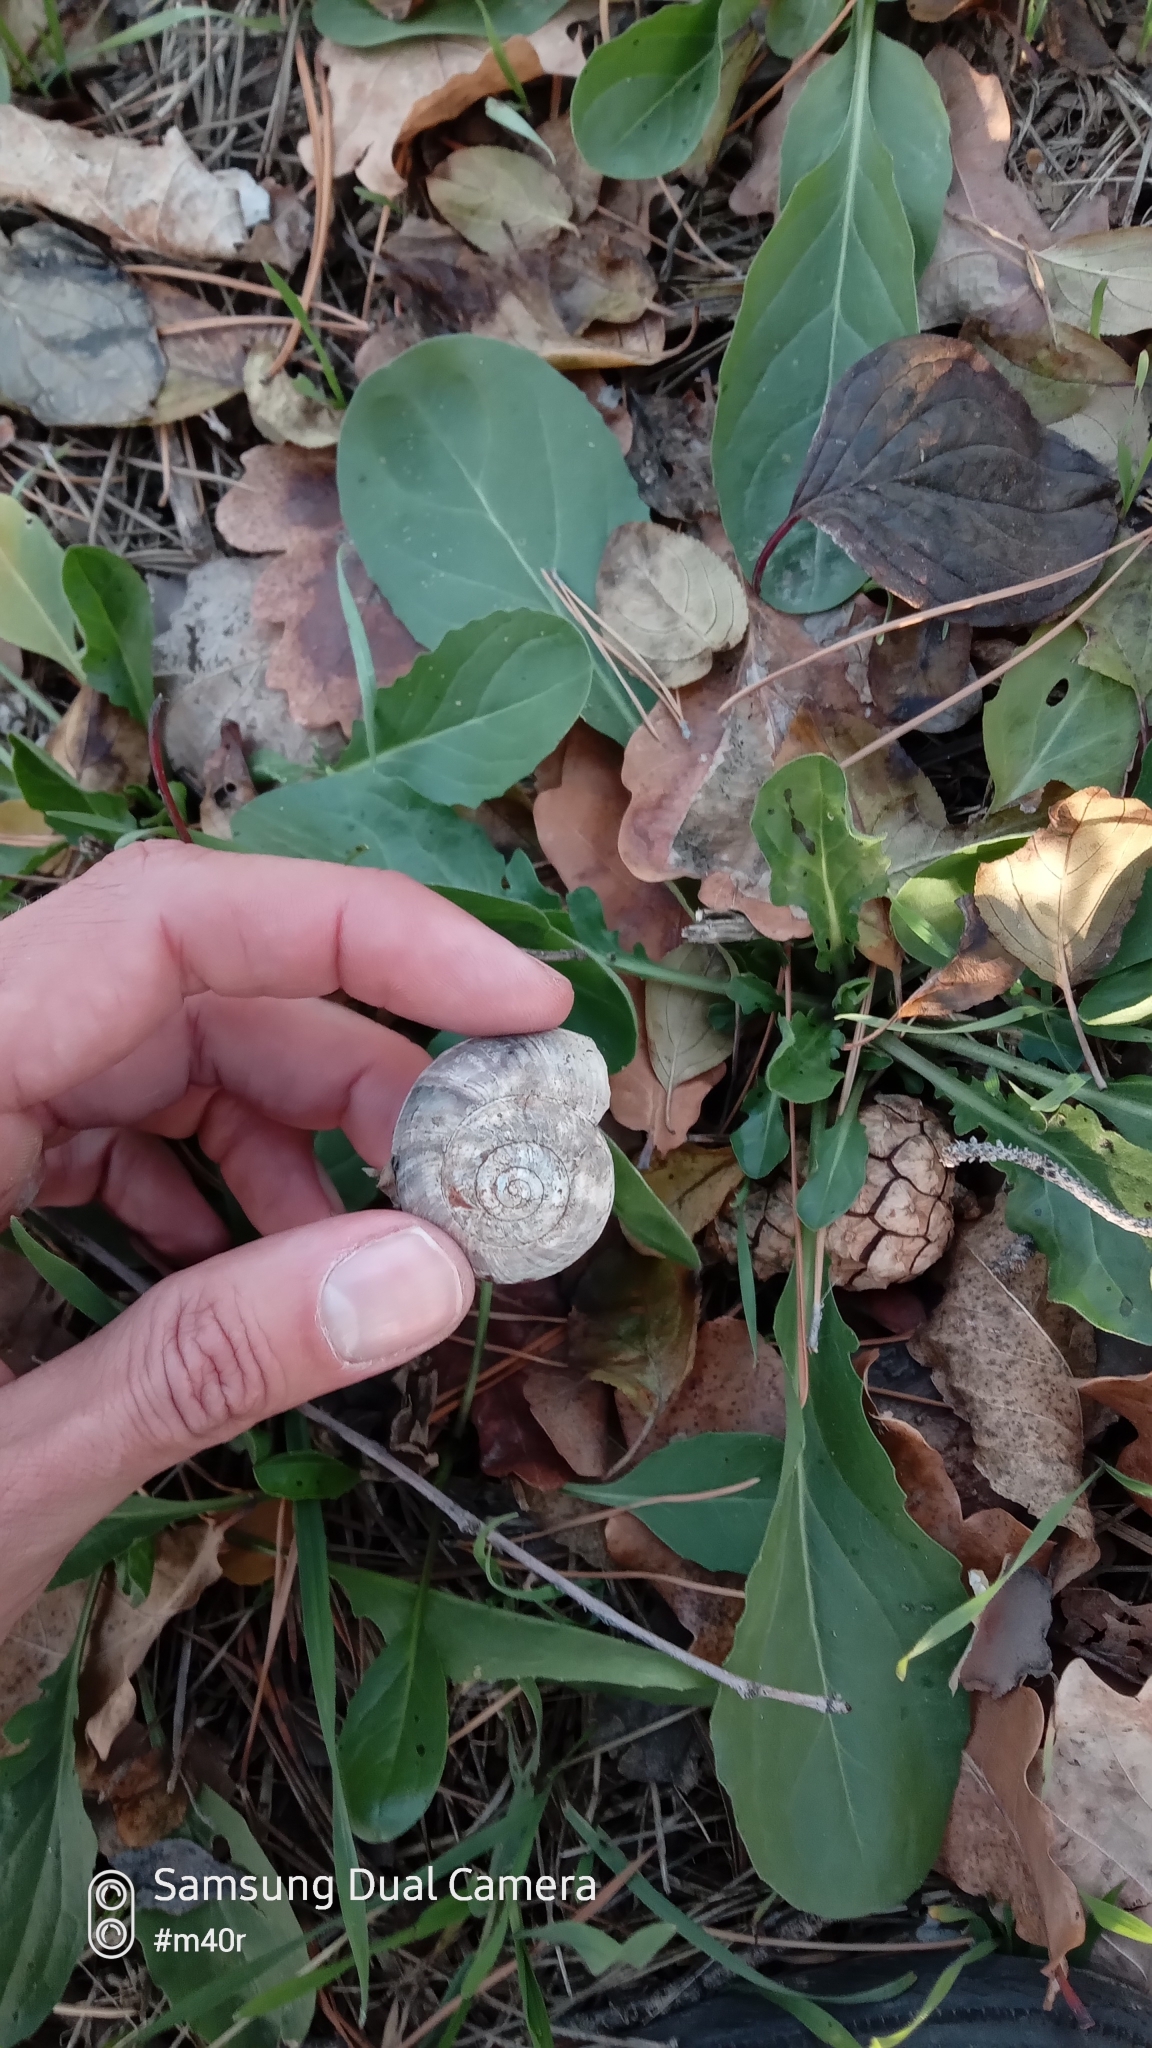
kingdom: Animalia
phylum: Mollusca
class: Gastropoda
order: Stylommatophora
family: Helicidae
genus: Helix
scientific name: Helix lucorum
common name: Turkish snail
